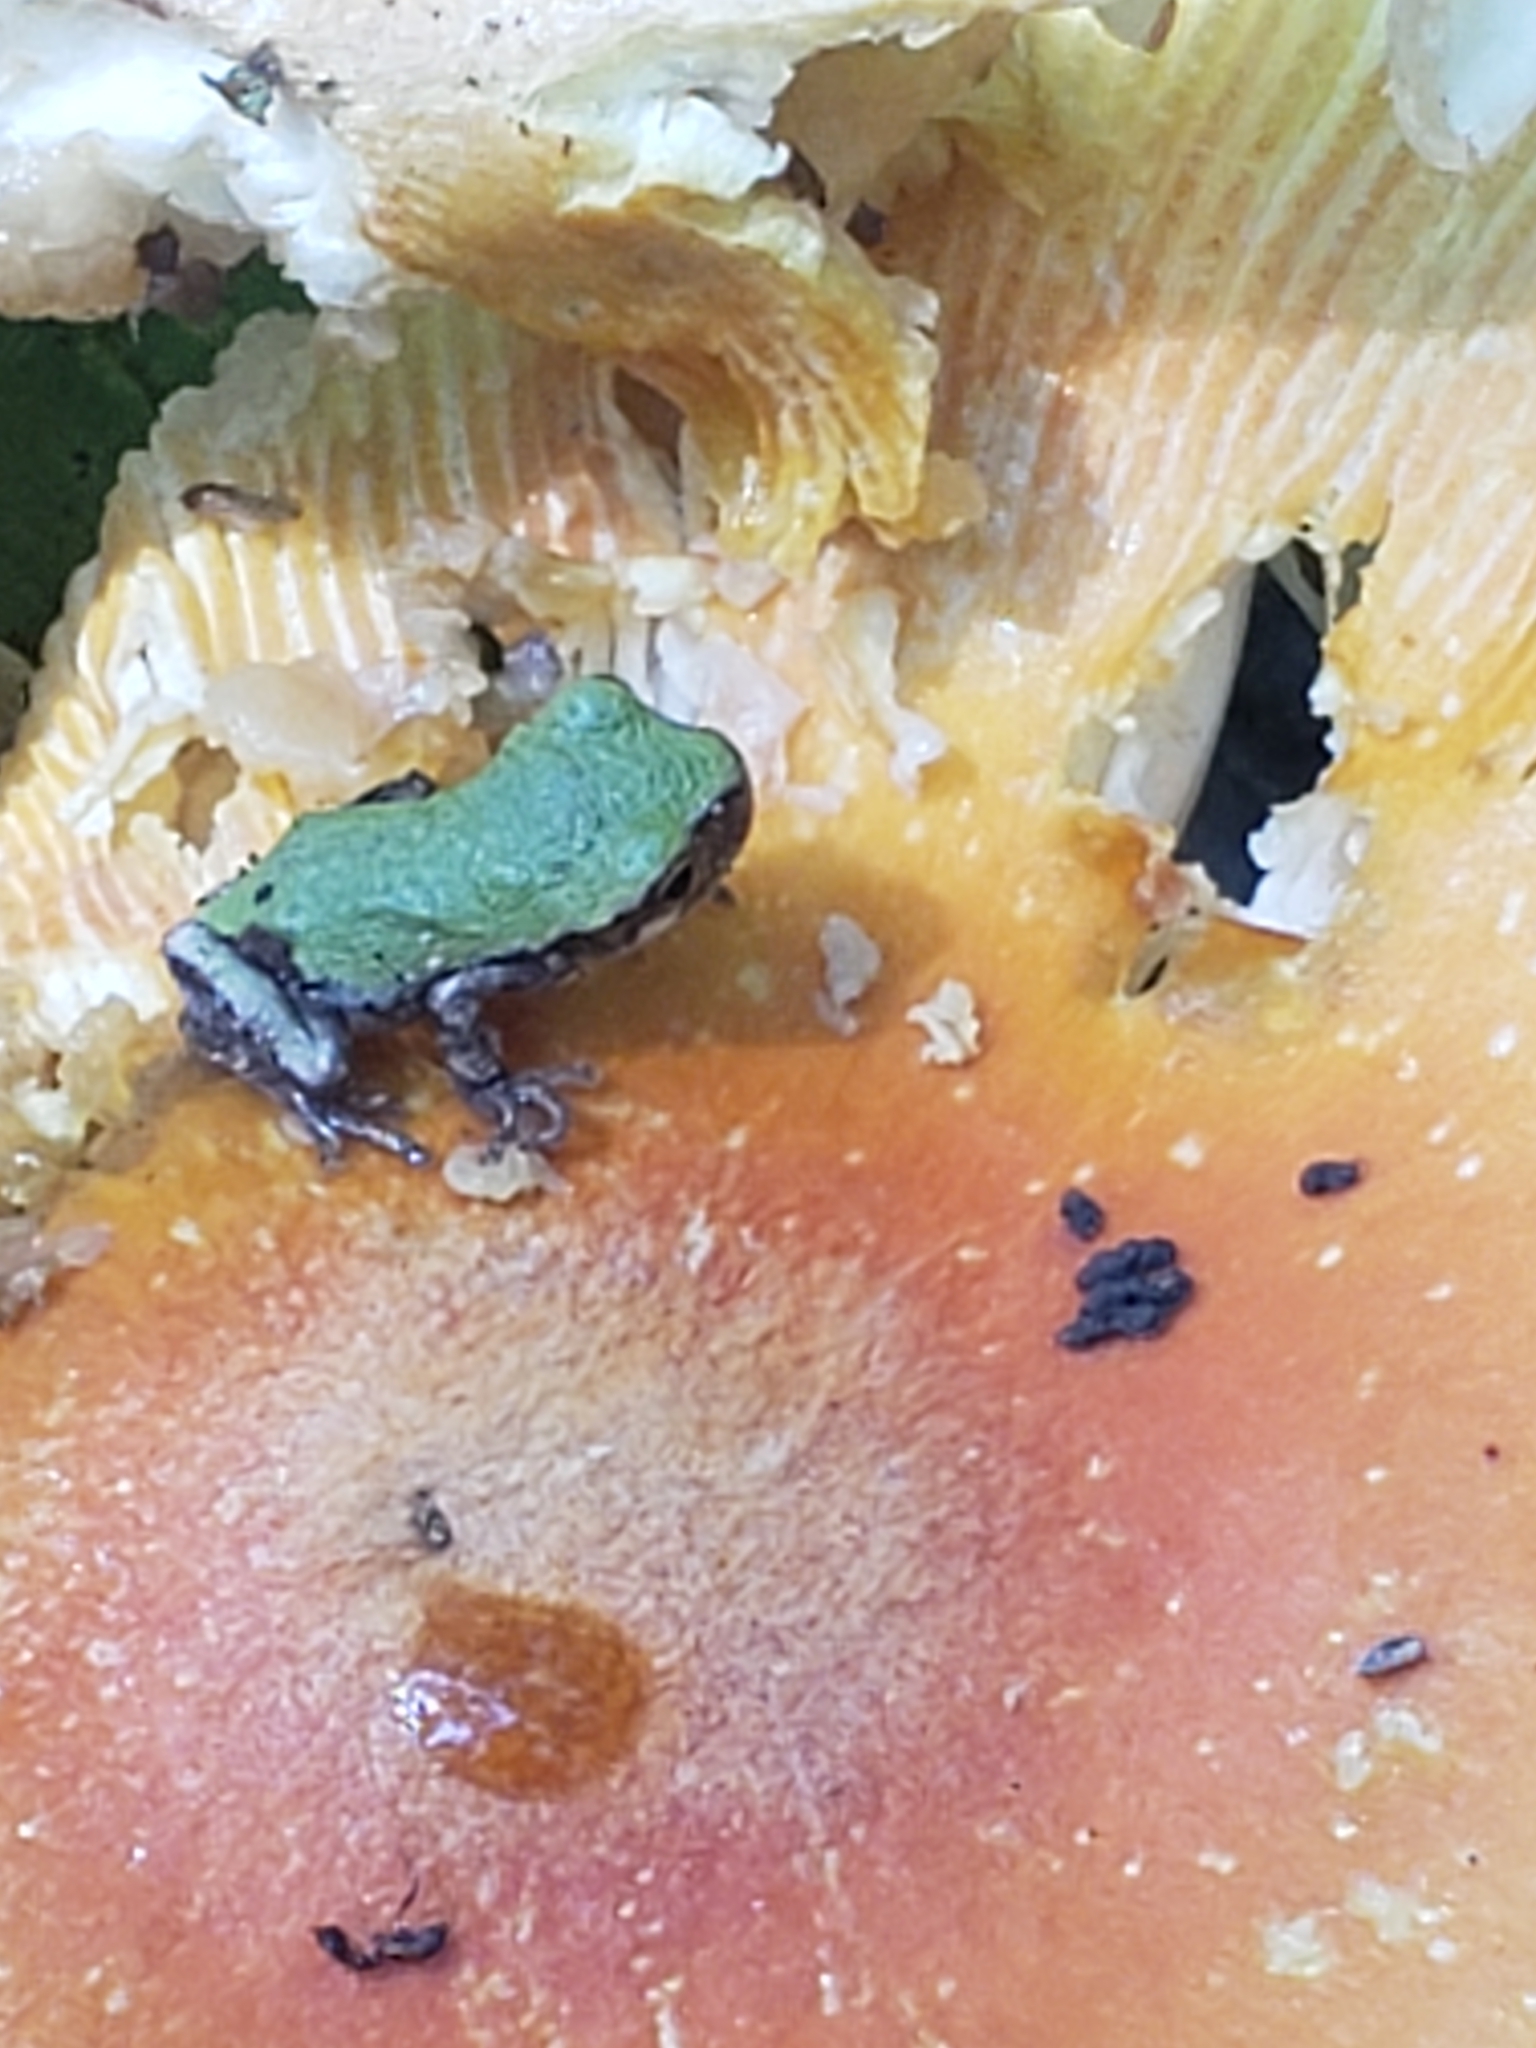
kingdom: Animalia
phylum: Chordata
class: Amphibia
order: Anura
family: Hylidae
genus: Hyla
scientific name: Hyla
